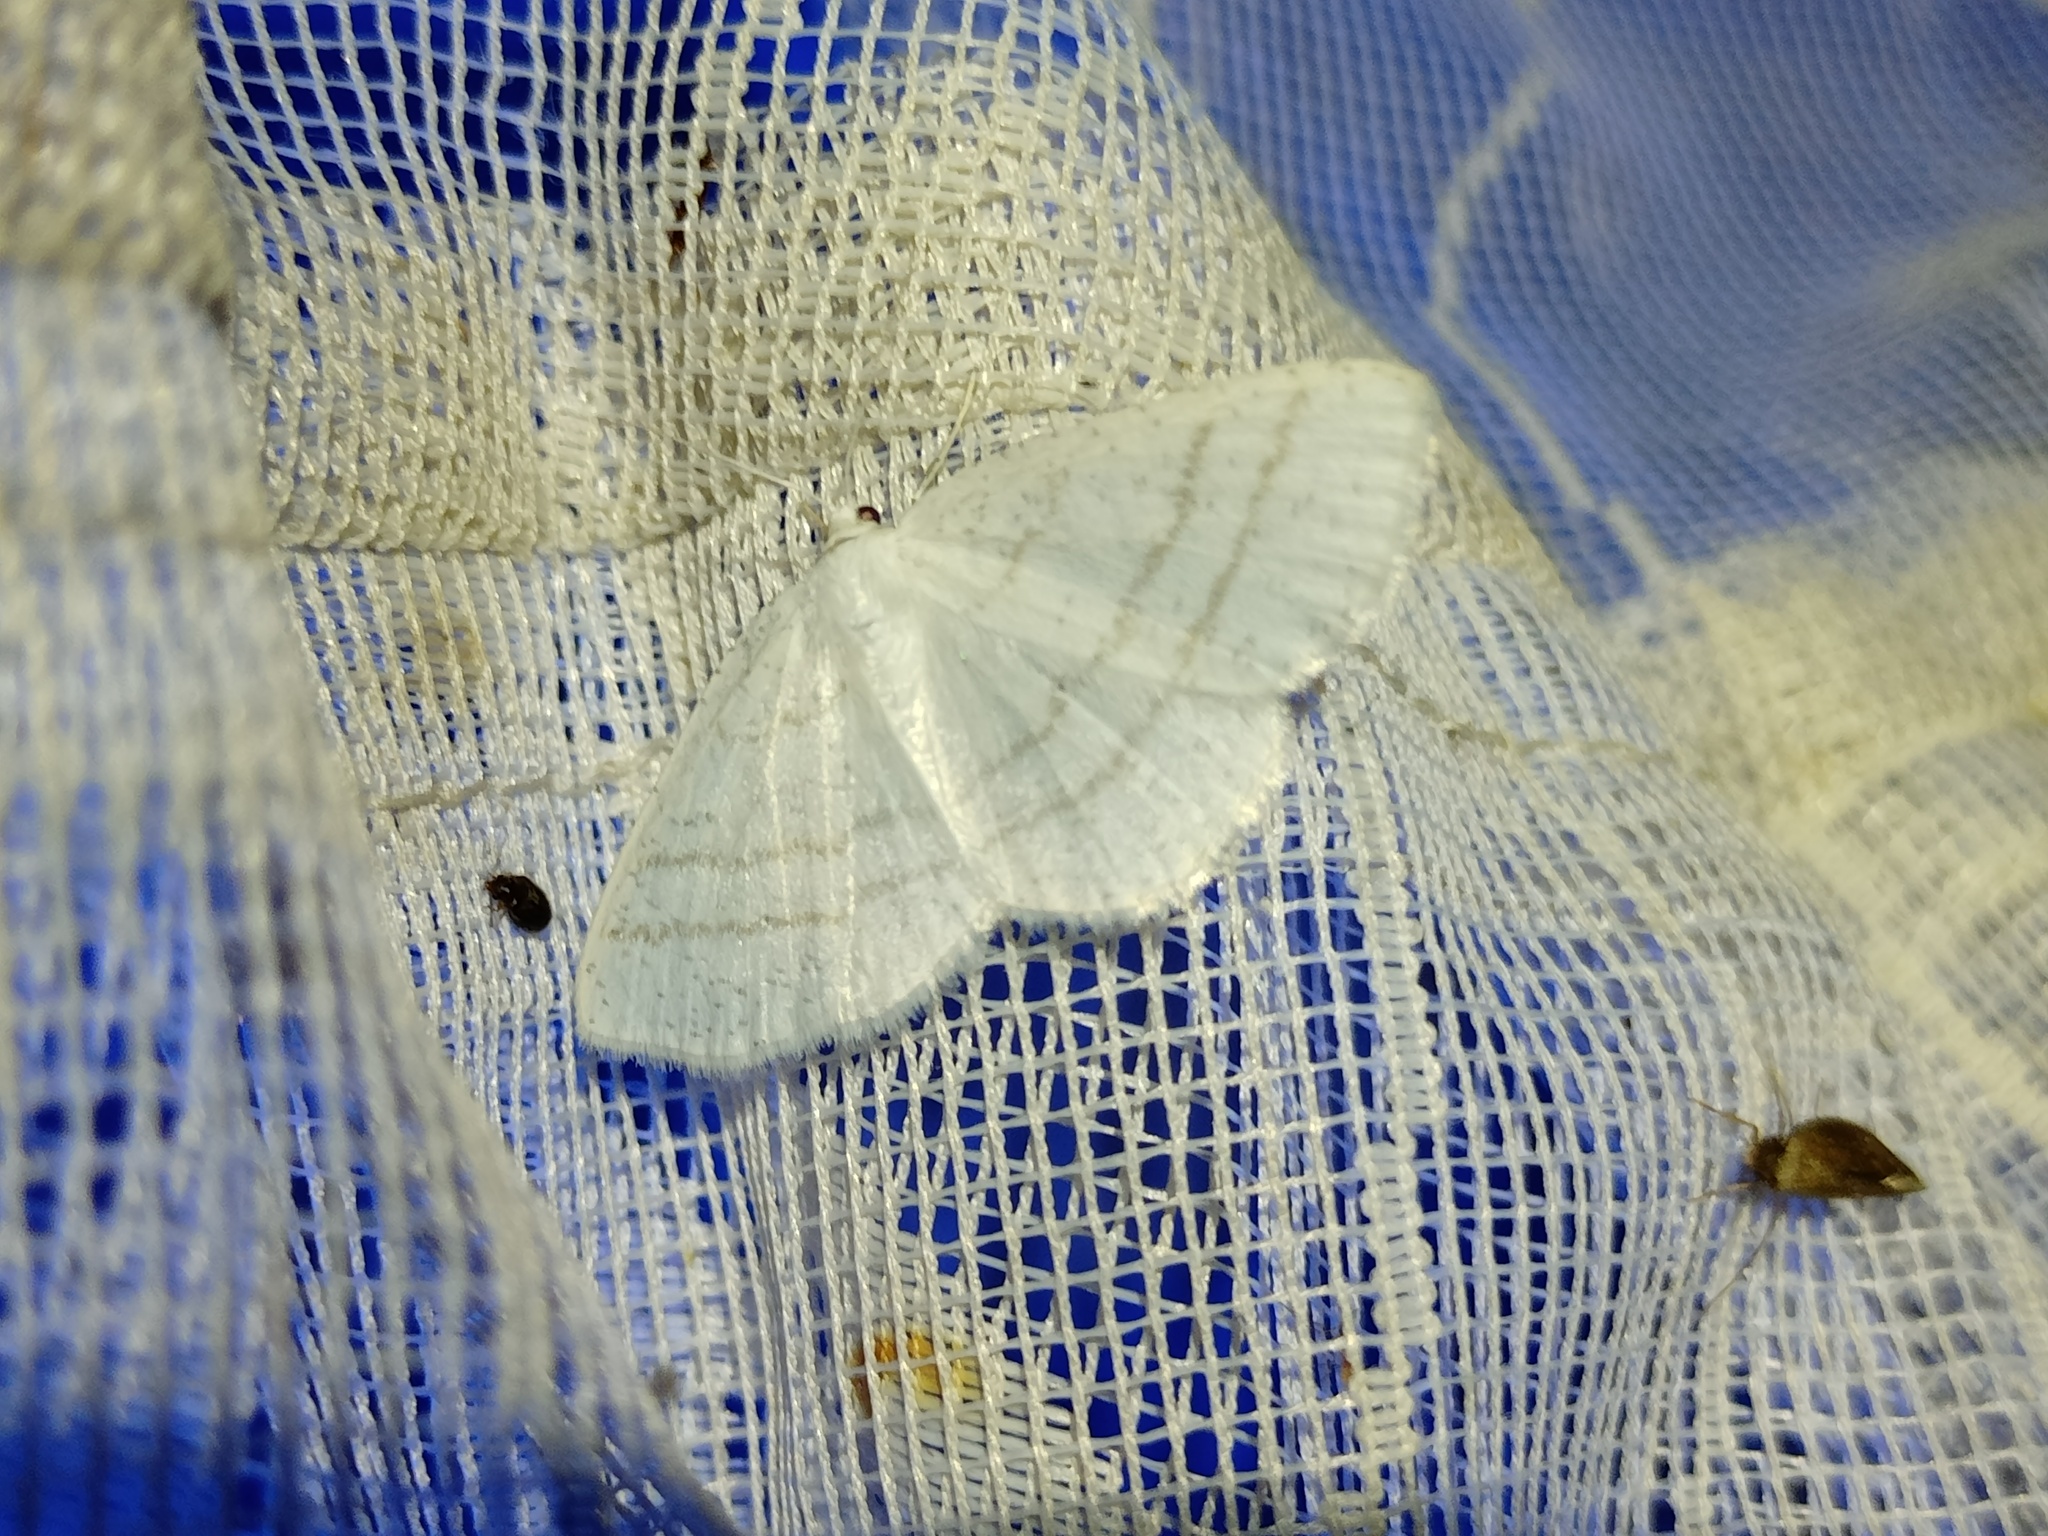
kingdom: Animalia
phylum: Arthropoda
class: Insecta
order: Lepidoptera
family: Geometridae
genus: Cabera
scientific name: Cabera pusaria
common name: Common white wave
